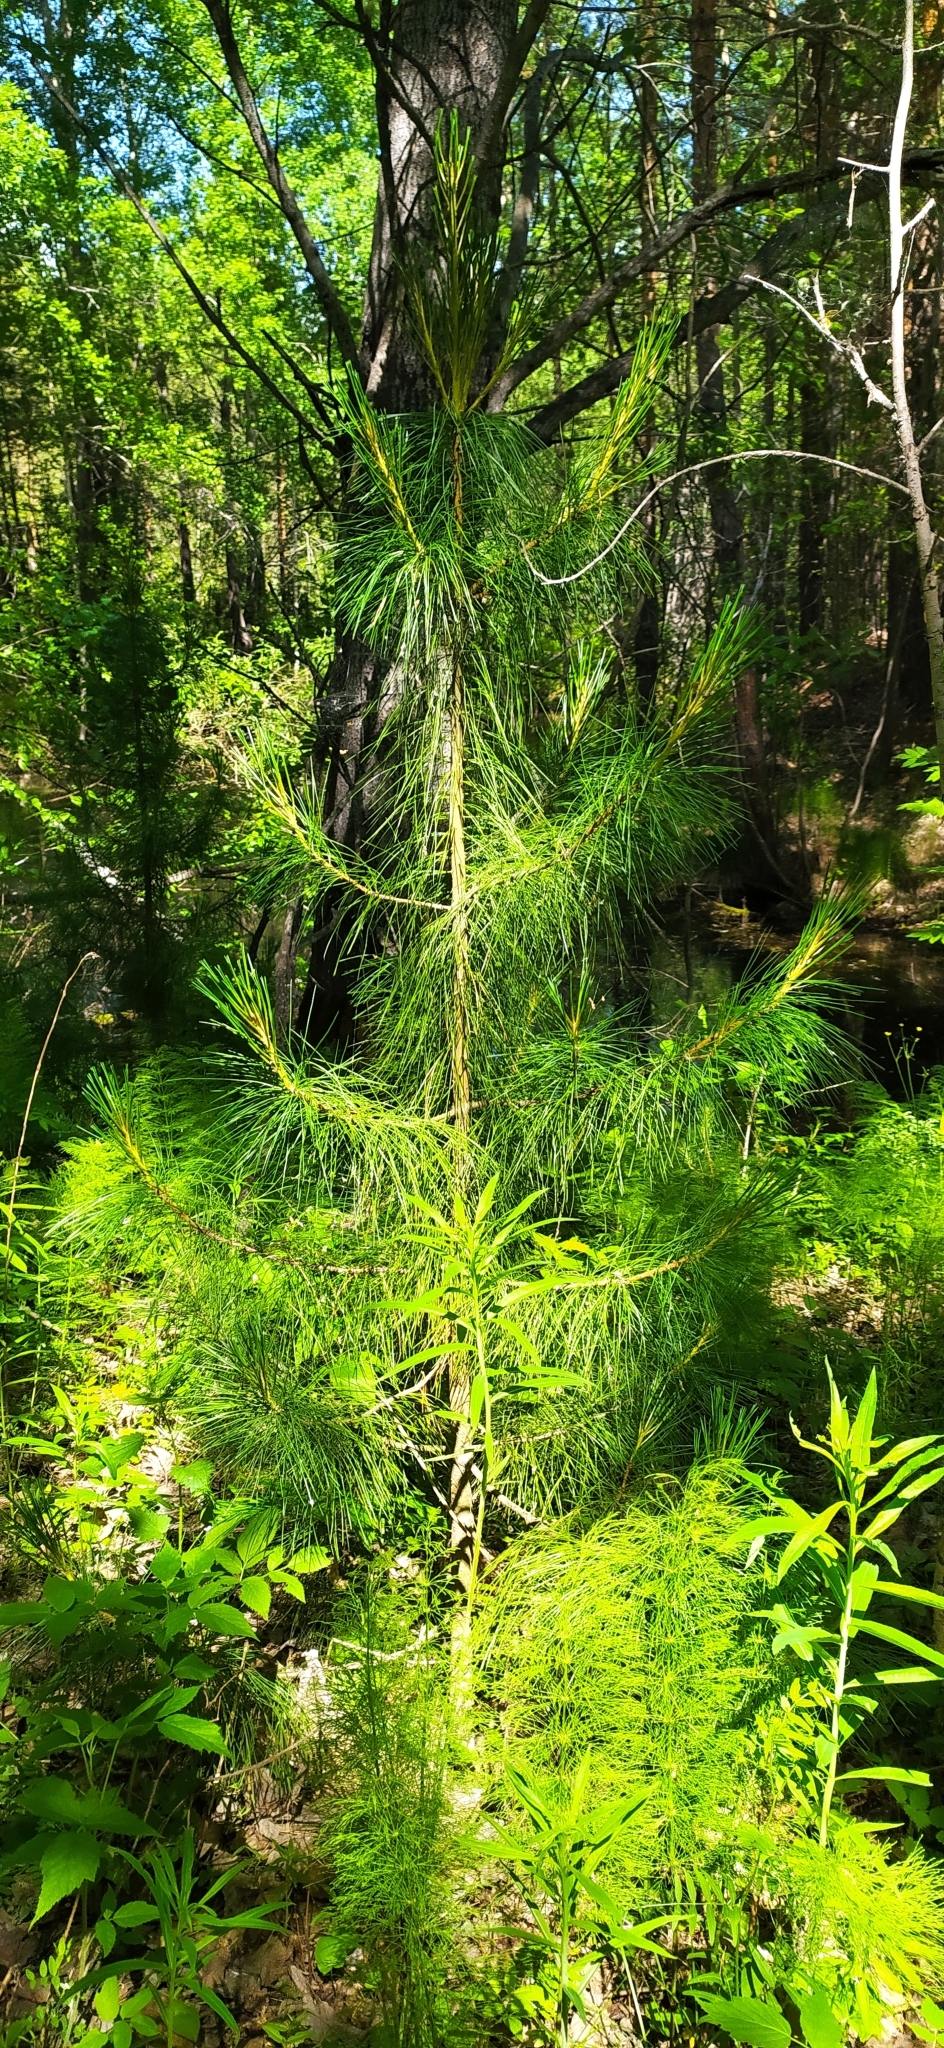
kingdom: Plantae
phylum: Tracheophyta
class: Pinopsida
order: Pinales
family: Pinaceae
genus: Pinus
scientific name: Pinus sibirica
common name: Siberian pine
